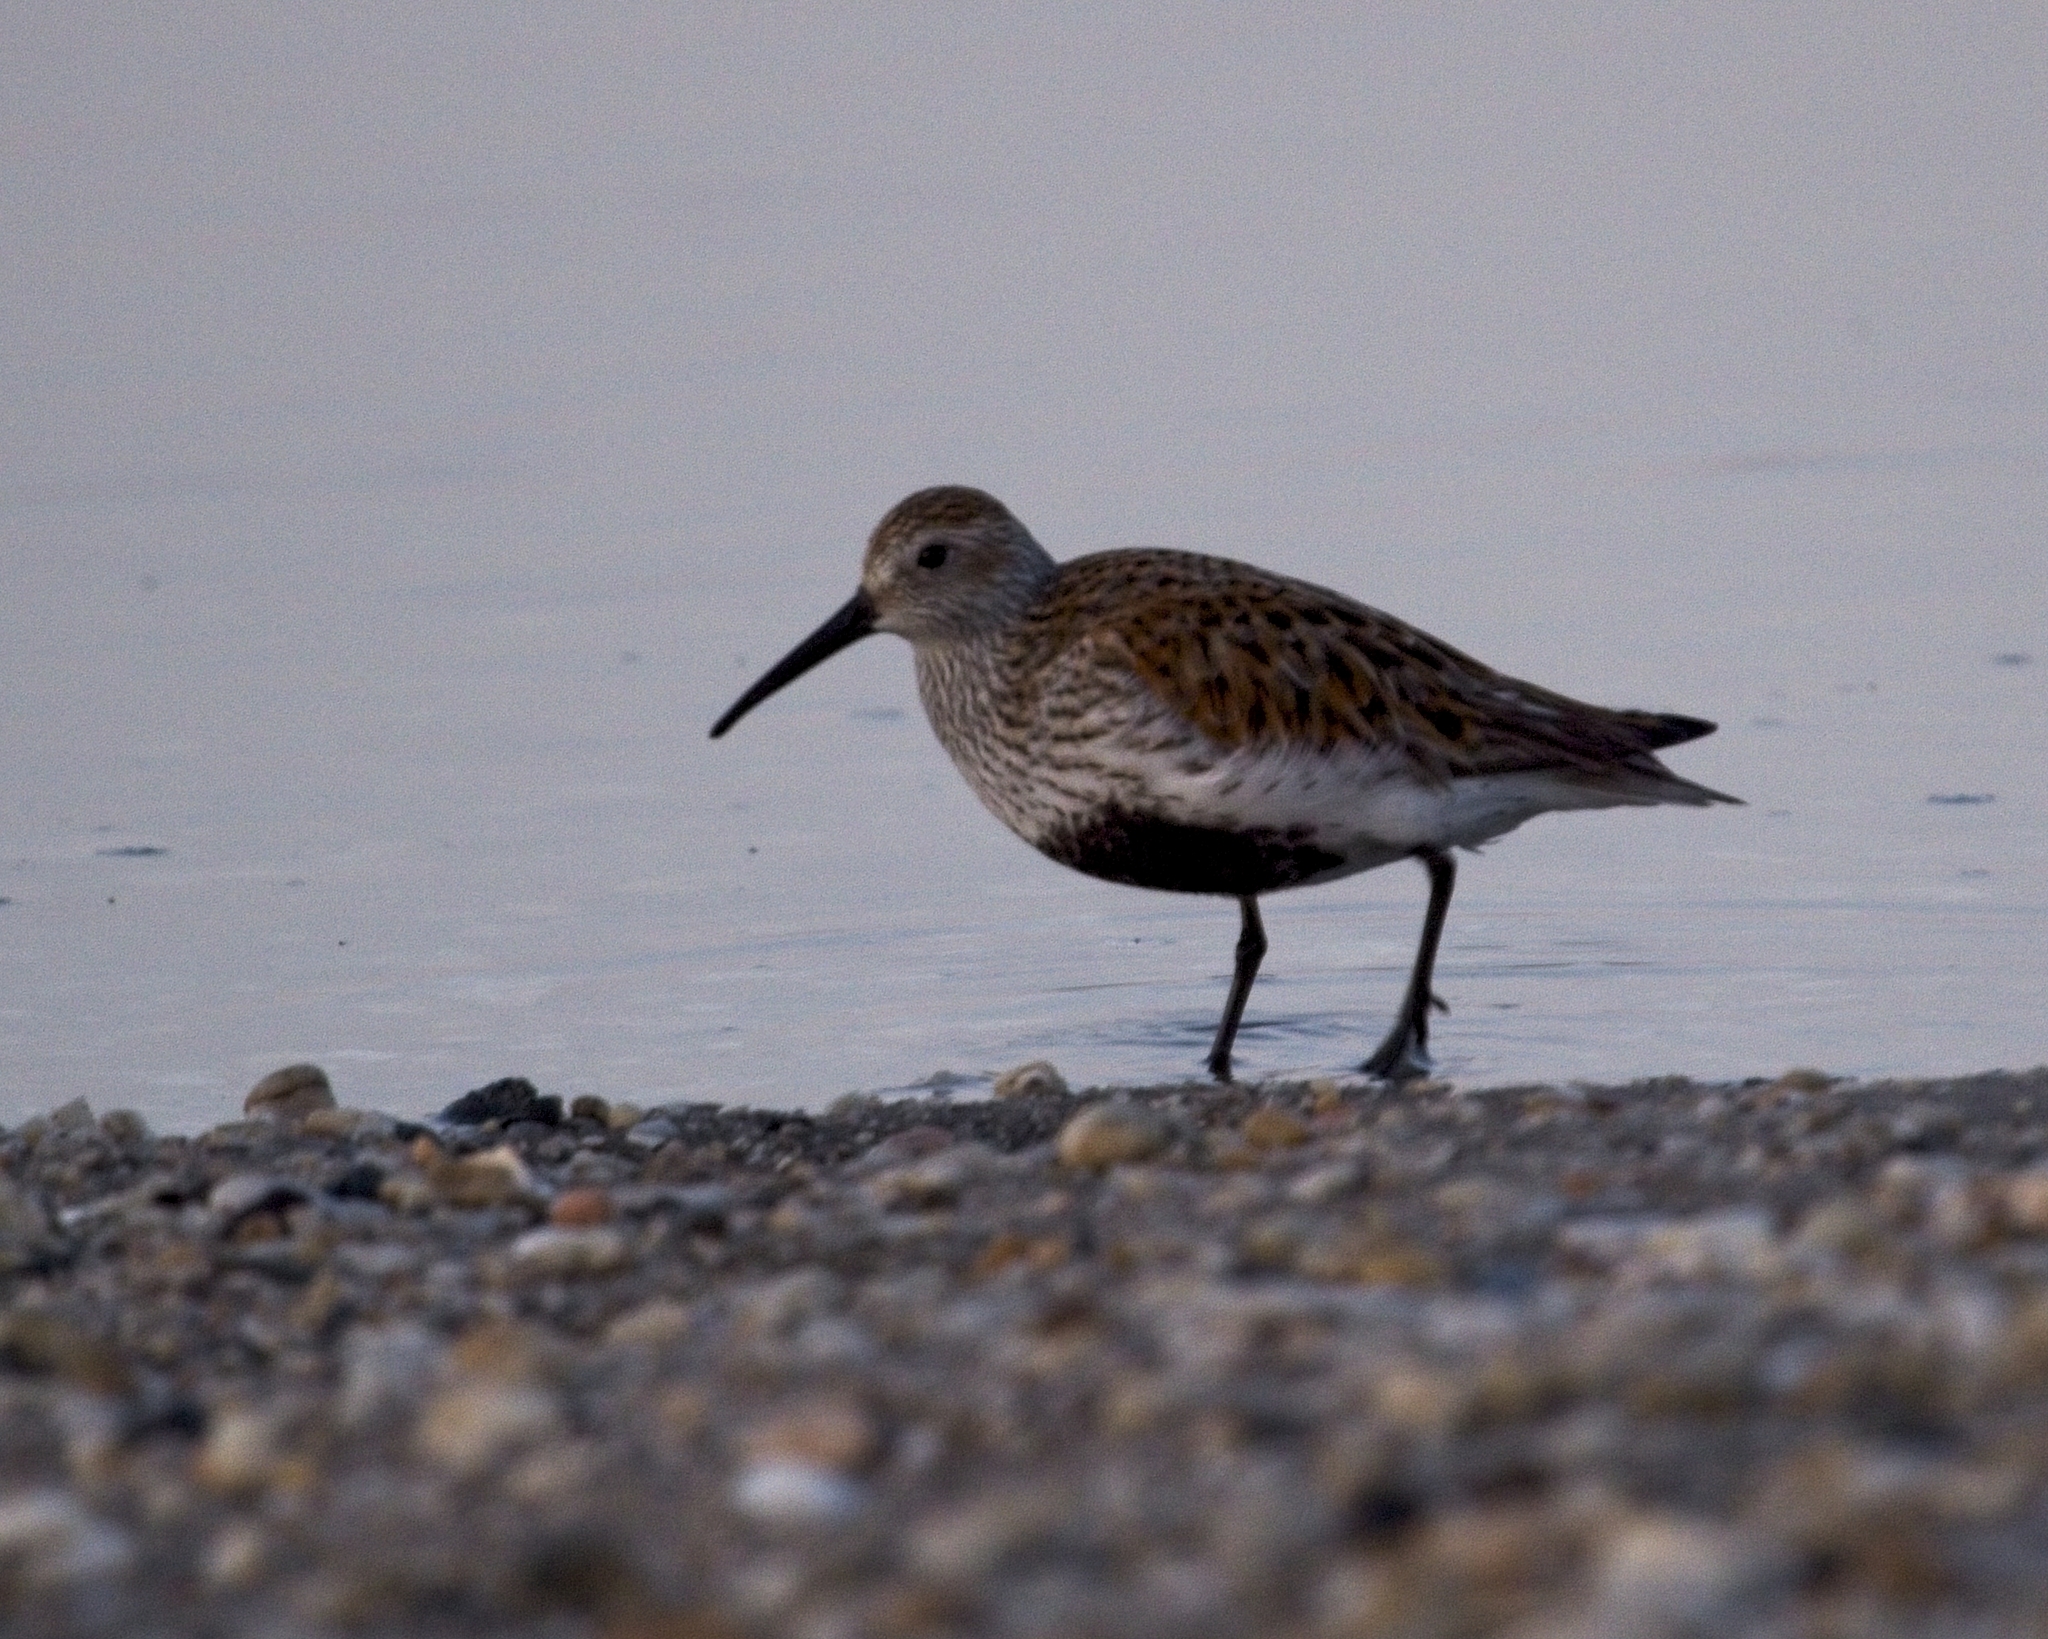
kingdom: Animalia
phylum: Chordata
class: Aves
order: Charadriiformes
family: Scolopacidae
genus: Calidris
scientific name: Calidris alpina
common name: Dunlin
